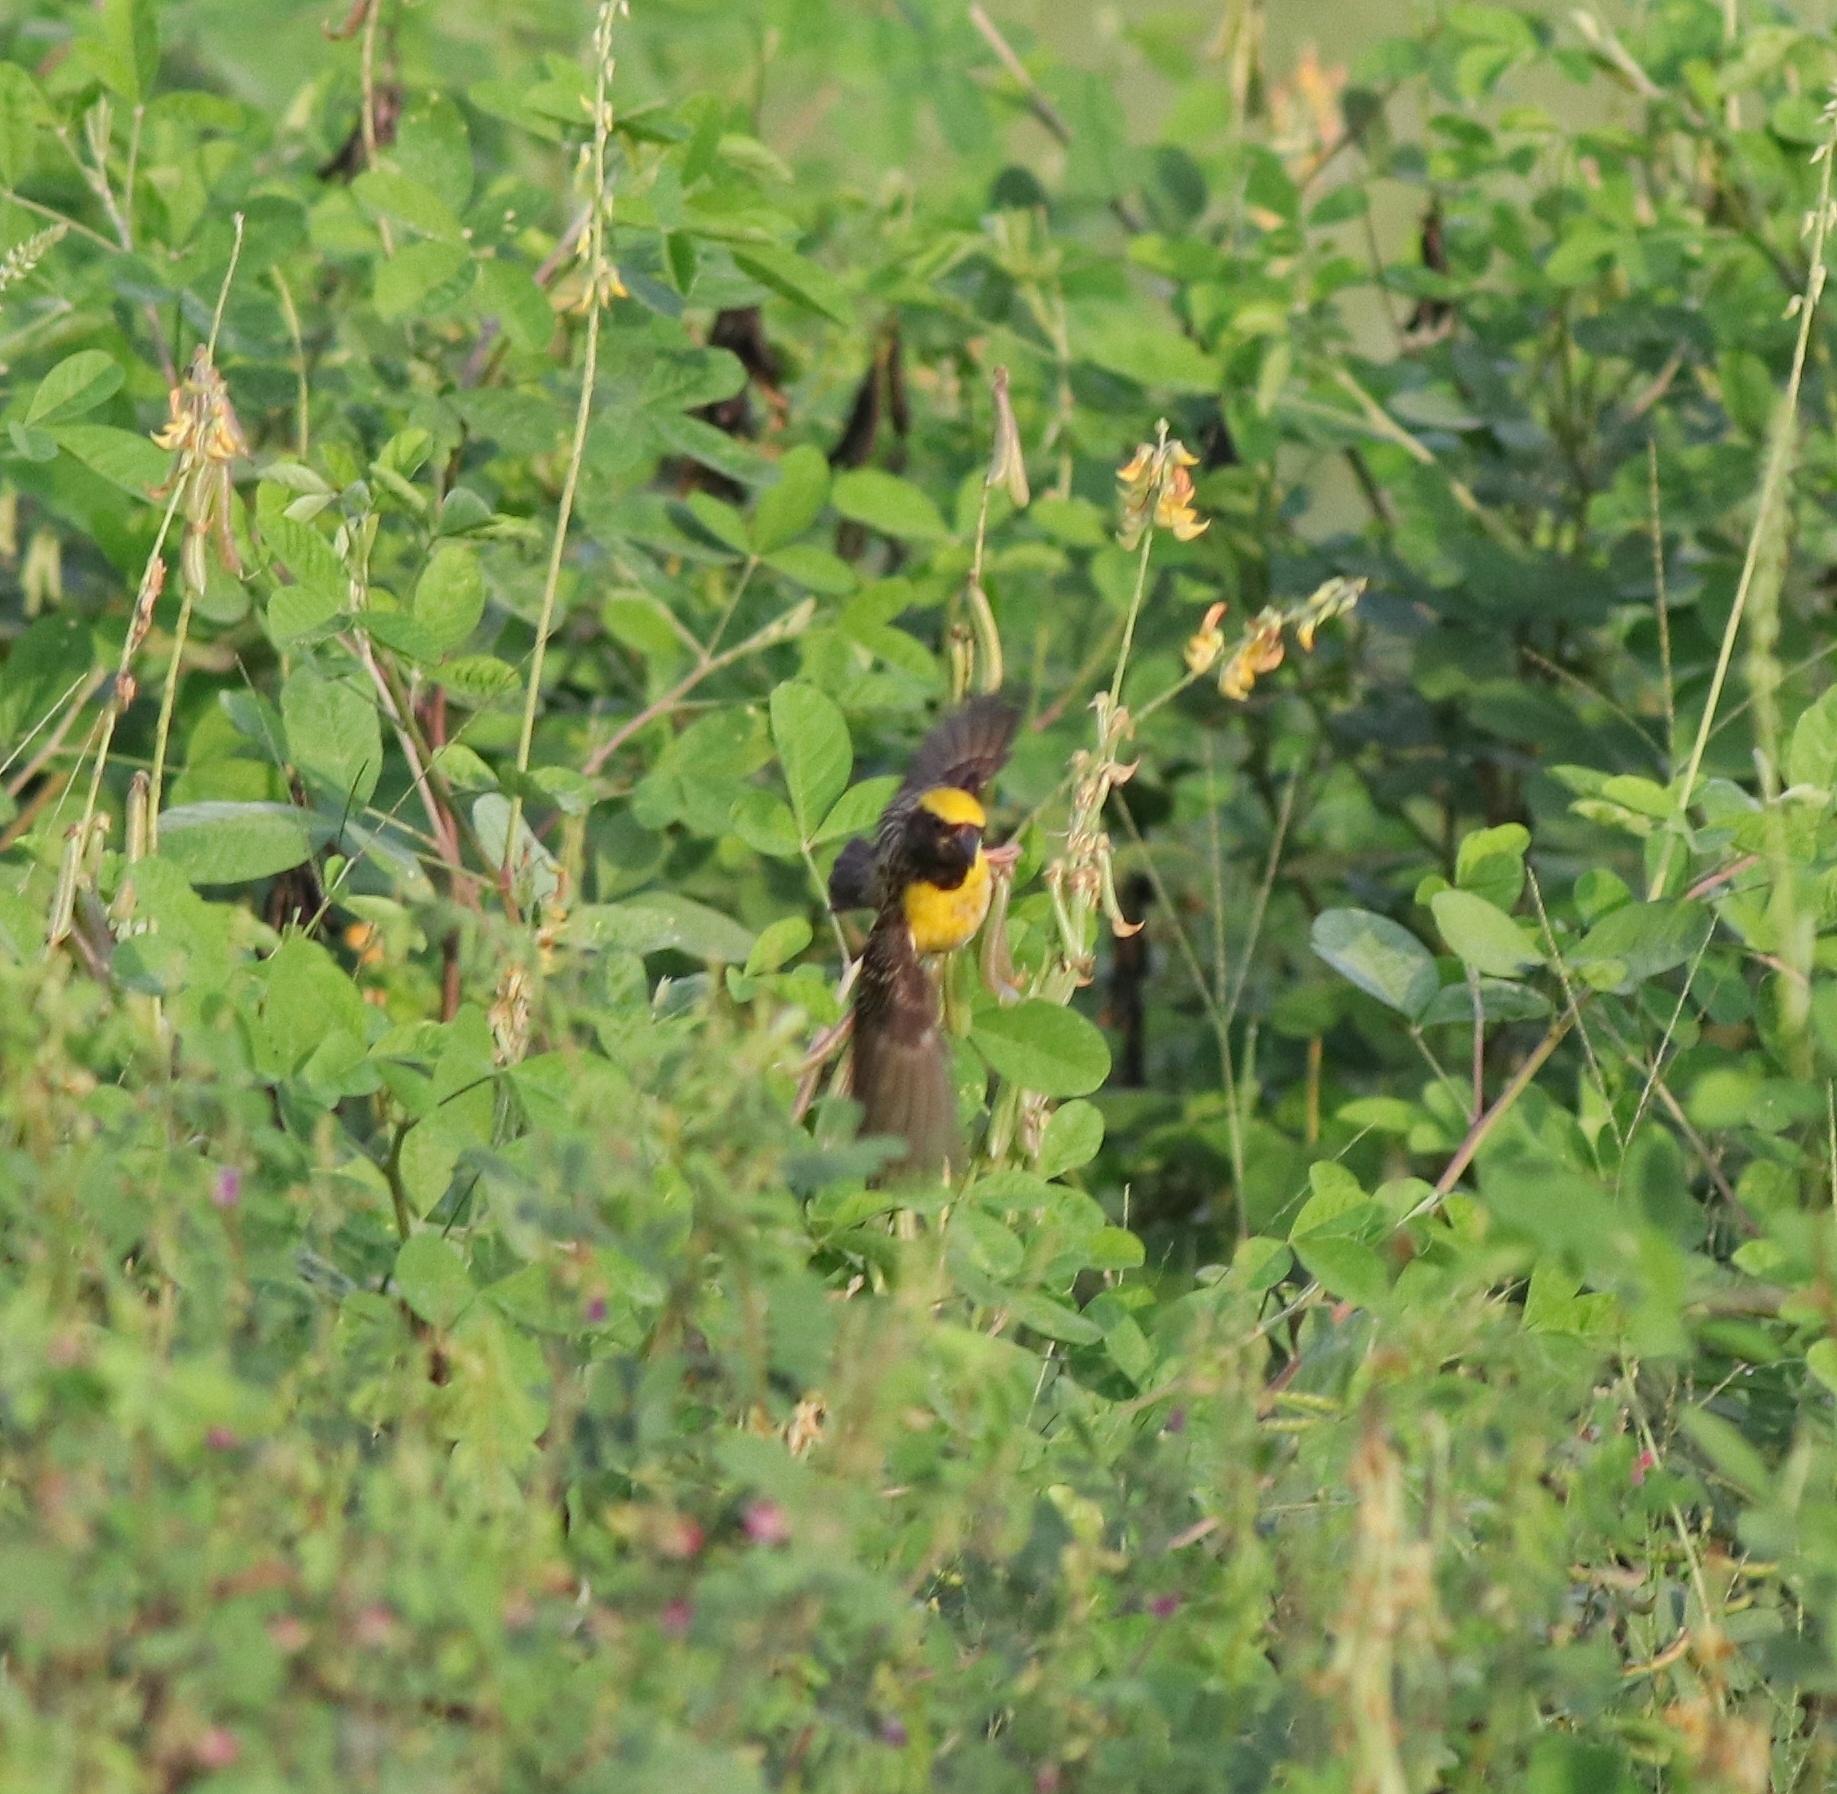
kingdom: Animalia
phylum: Chordata
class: Aves
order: Passeriformes
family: Ploceidae
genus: Ploceus
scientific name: Ploceus philippinus
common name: Baya weaver
